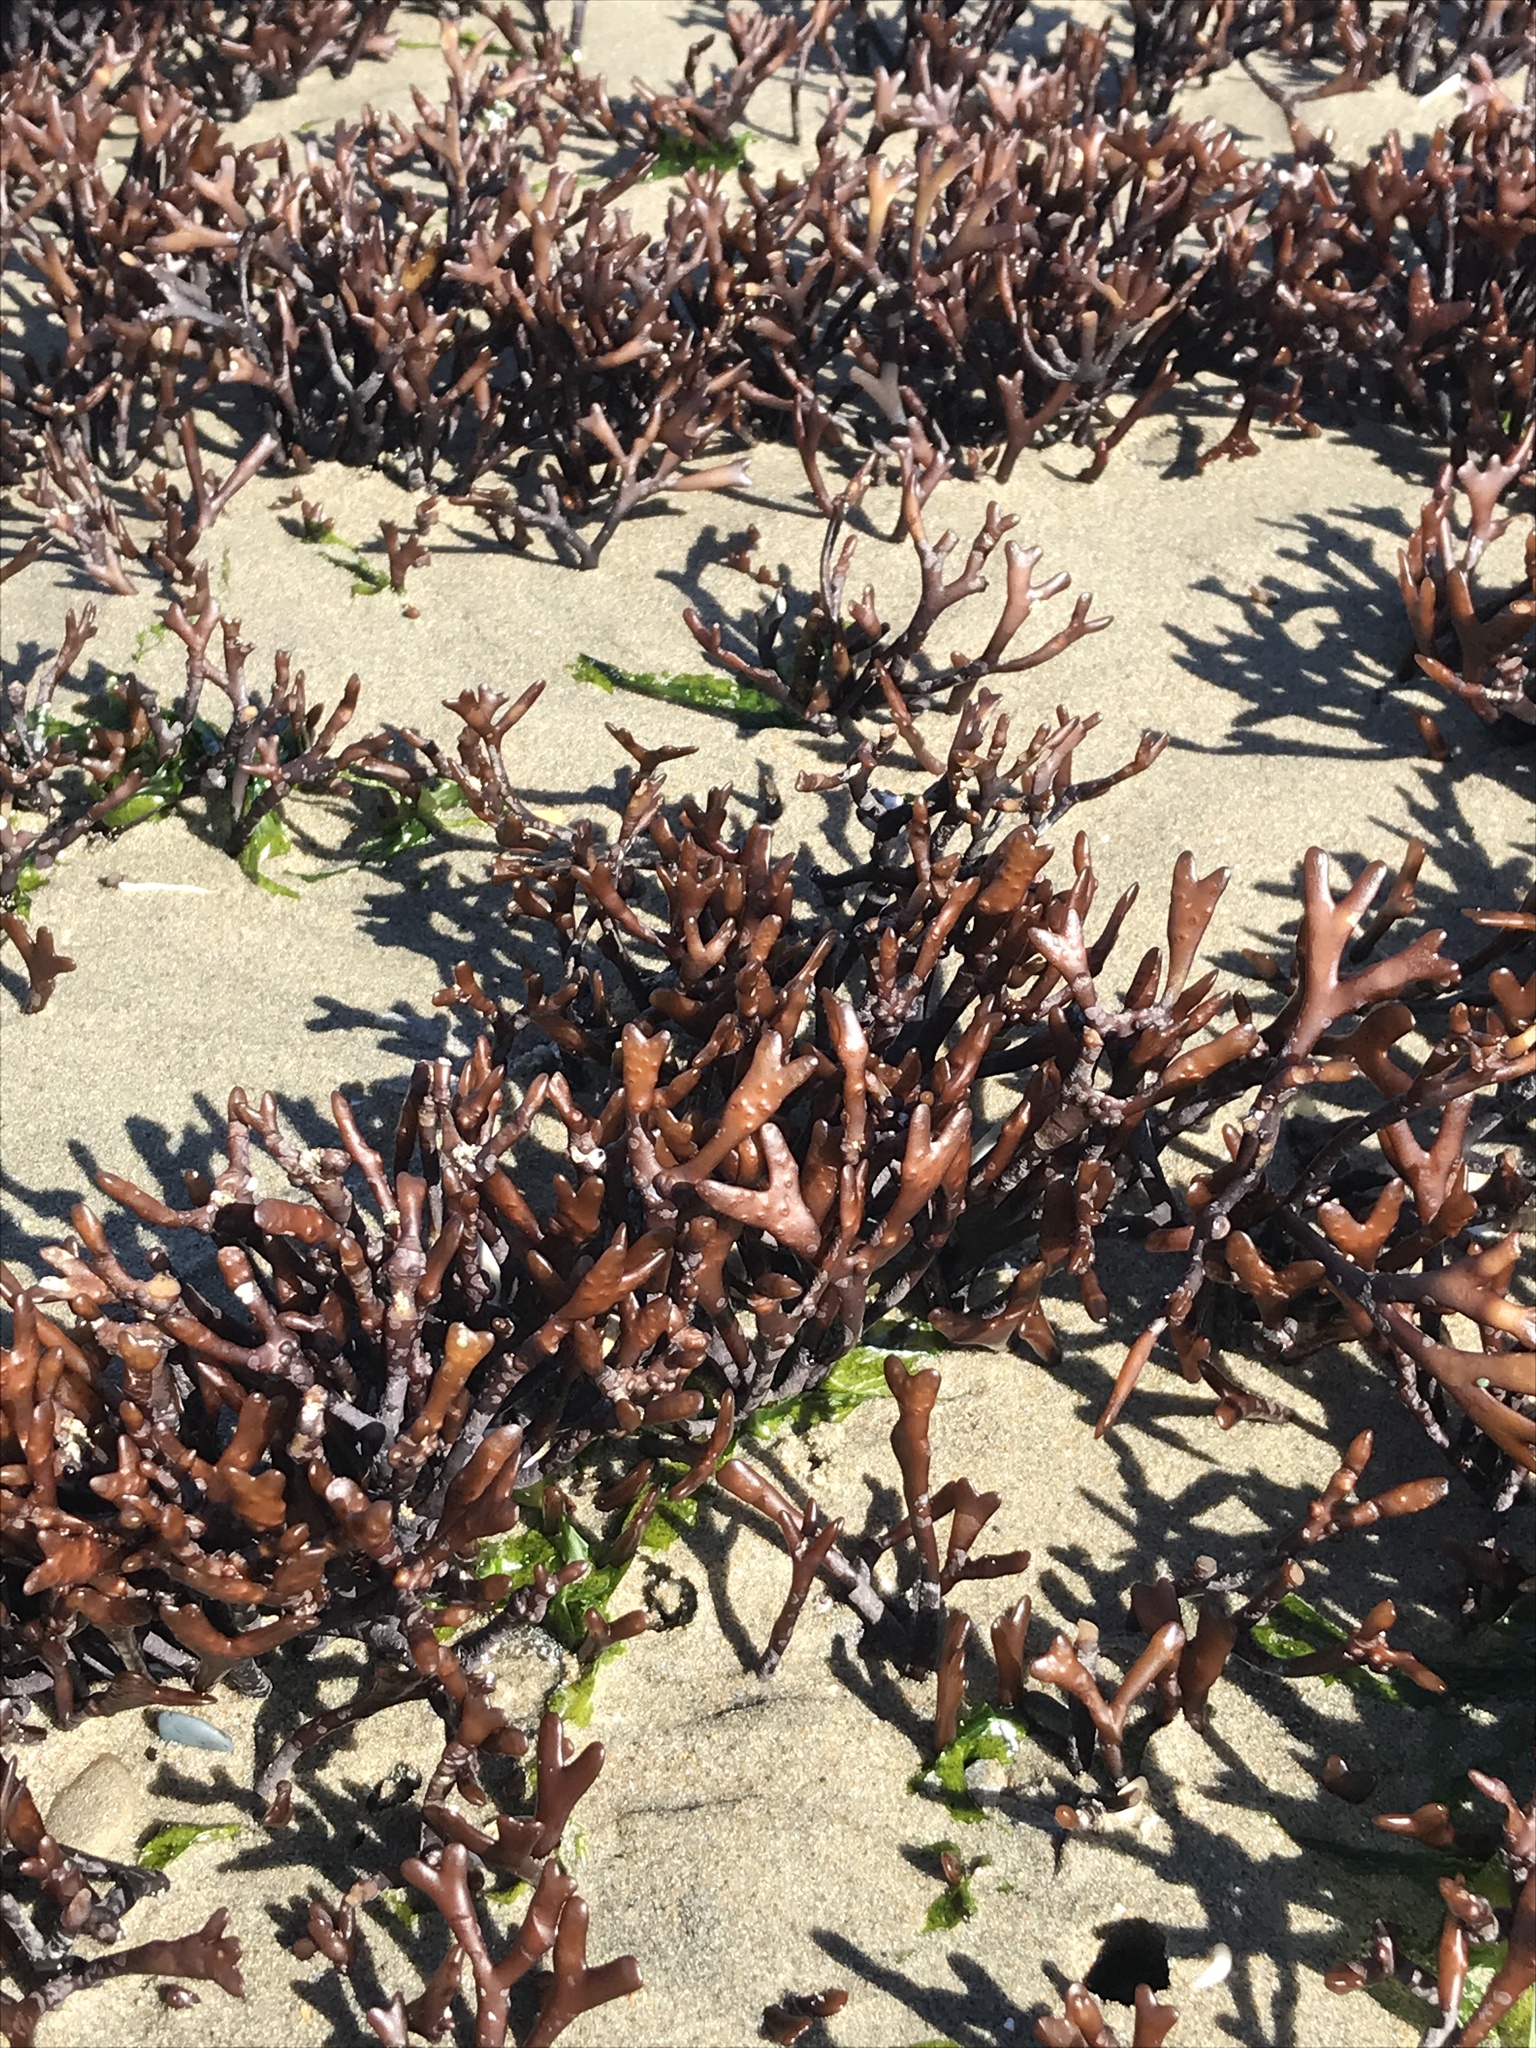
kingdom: Plantae
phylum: Rhodophyta
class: Florideophyceae
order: Gigartinales
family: Phyllophoraceae
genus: Ahnfeltiopsis
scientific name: Ahnfeltiopsis linearis
